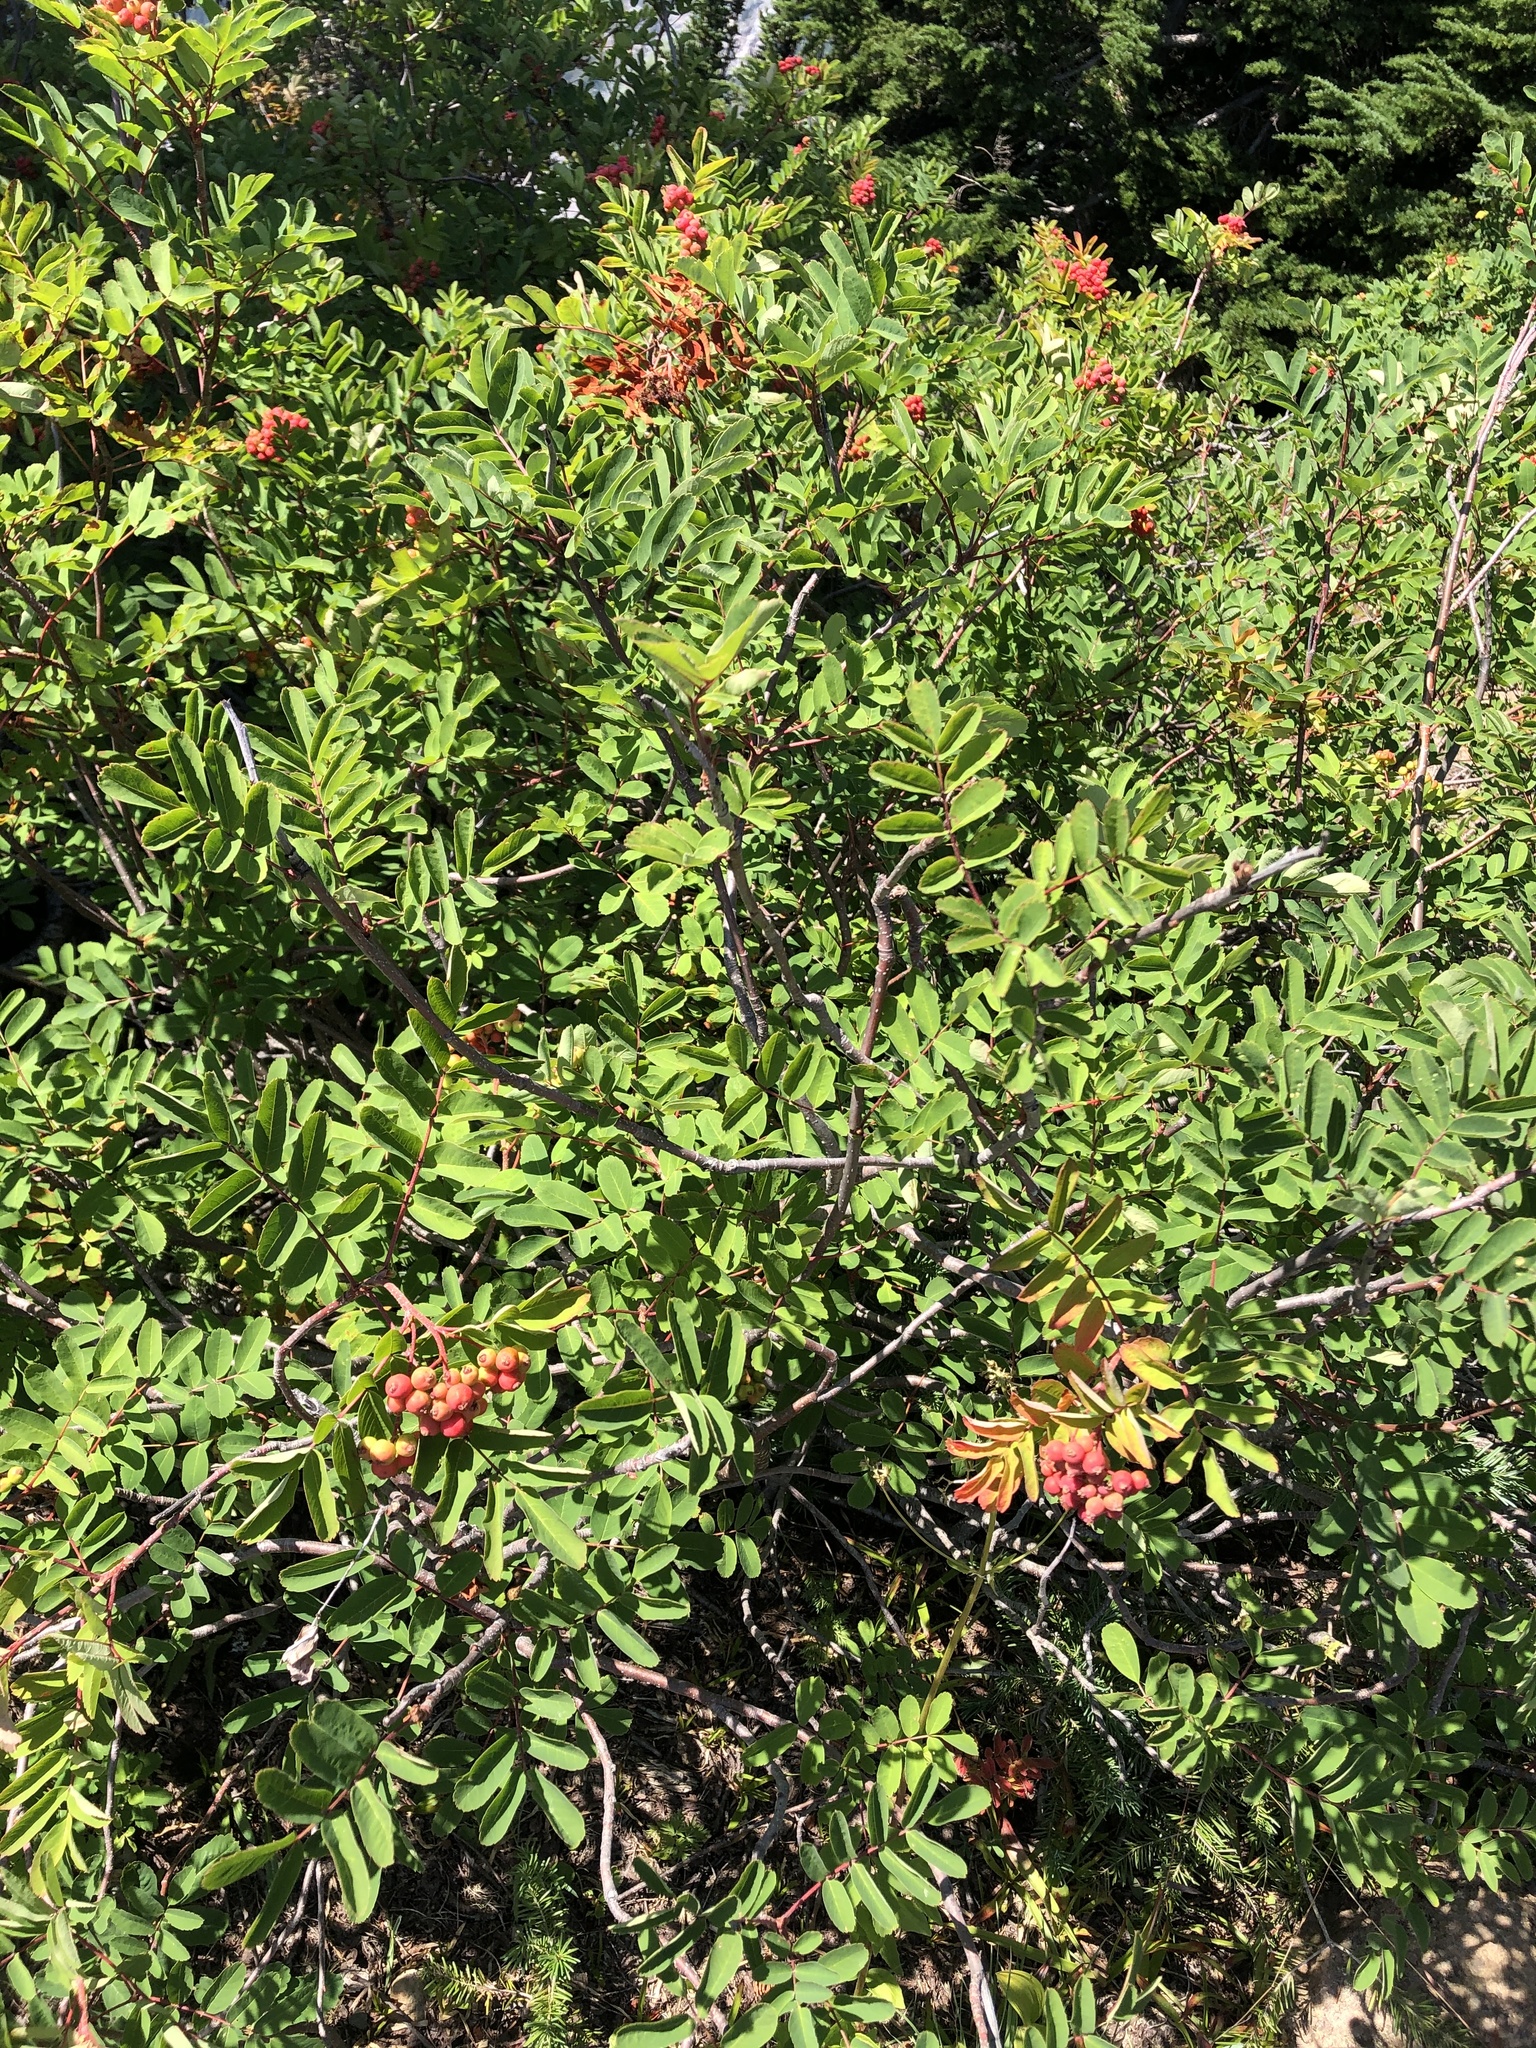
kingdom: Plantae
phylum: Tracheophyta
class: Magnoliopsida
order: Rosales
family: Rosaceae
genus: Sorbus
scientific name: Sorbus sitchensis
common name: Sitka mountain-ash
